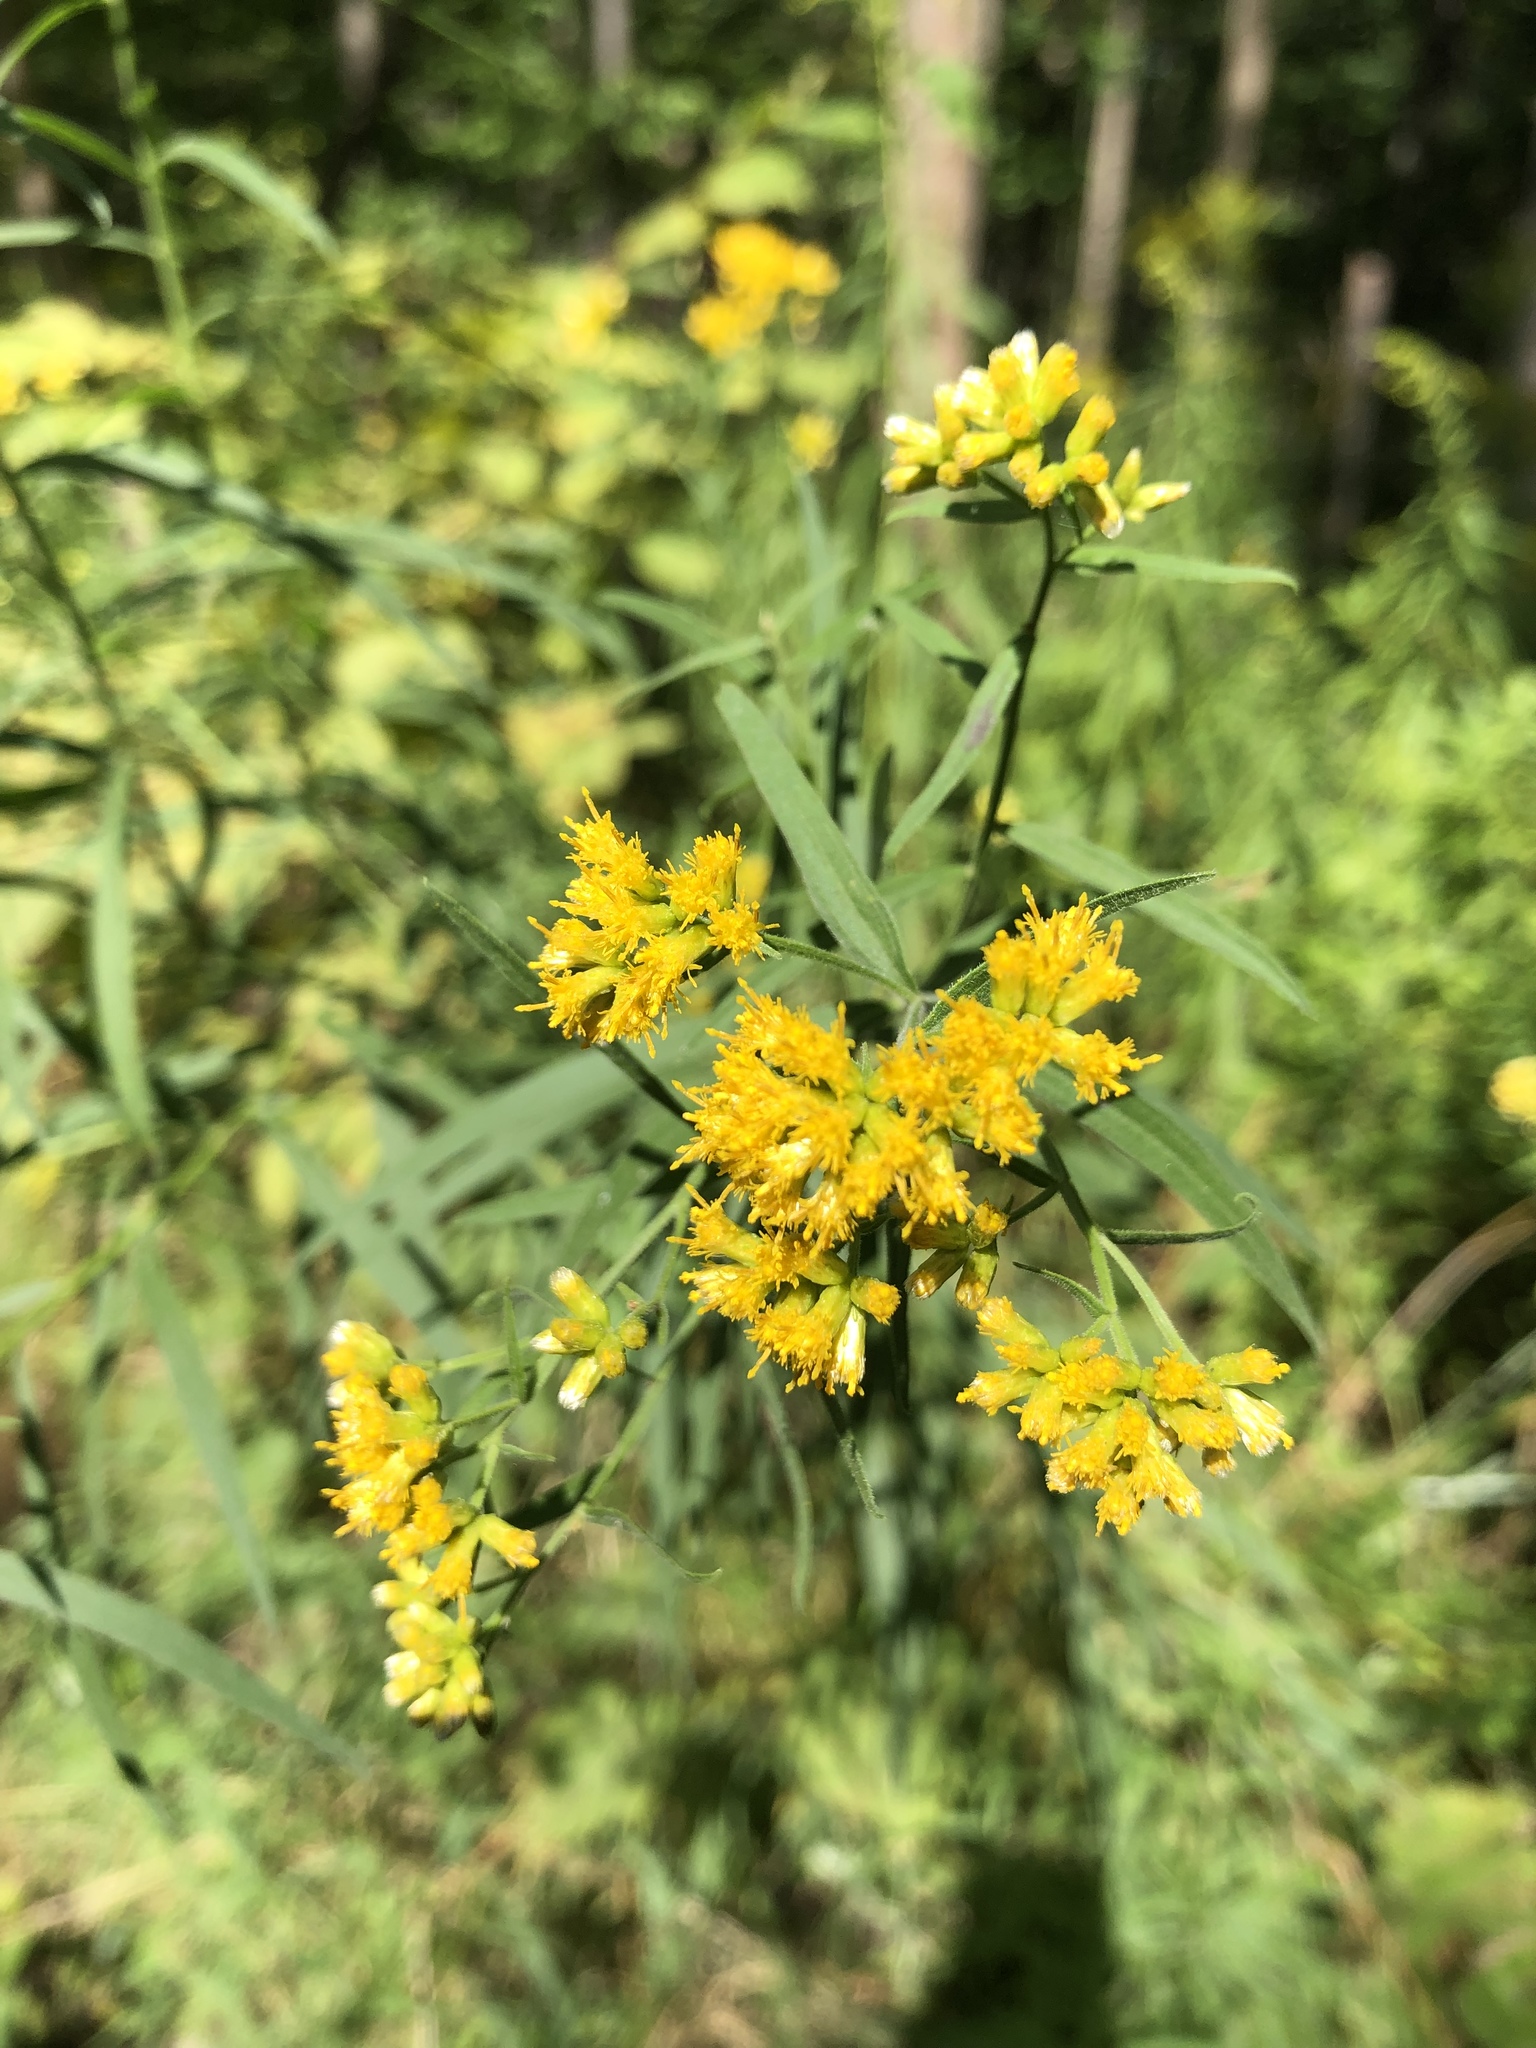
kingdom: Plantae
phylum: Tracheophyta
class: Magnoliopsida
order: Asterales
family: Asteraceae
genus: Euthamia
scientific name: Euthamia graminifolia
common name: Common goldentop
